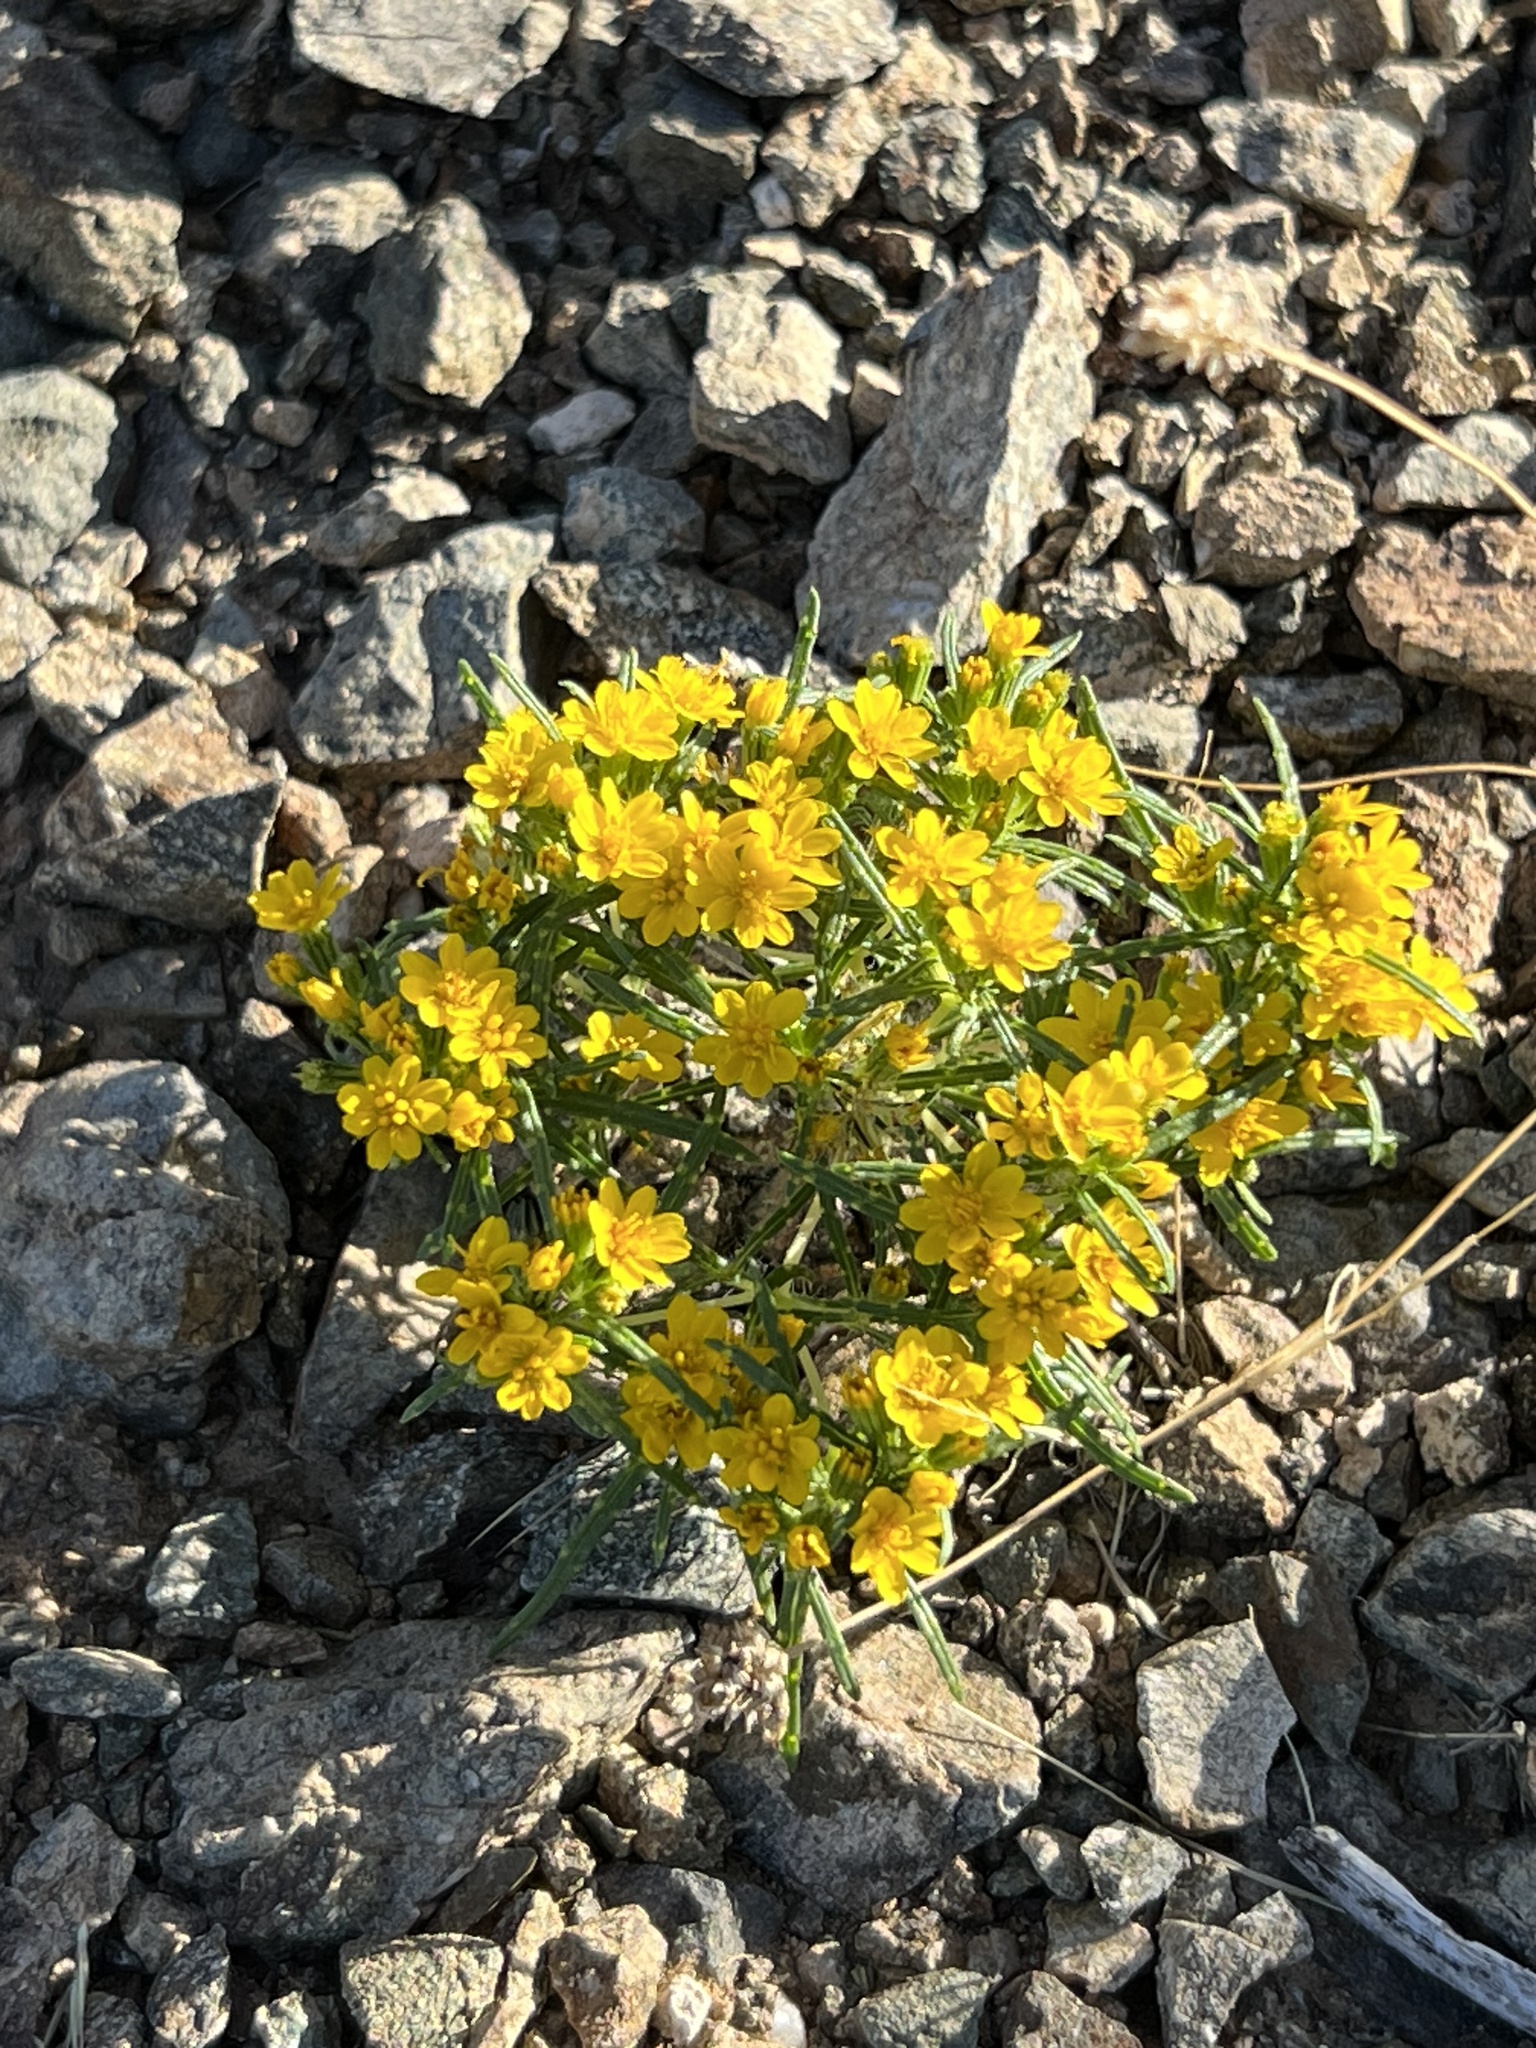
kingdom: Plantae
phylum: Tracheophyta
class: Magnoliopsida
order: Asterales
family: Asteraceae
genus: Pectis
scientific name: Pectis papposa
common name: Many-bristle chinchweed
